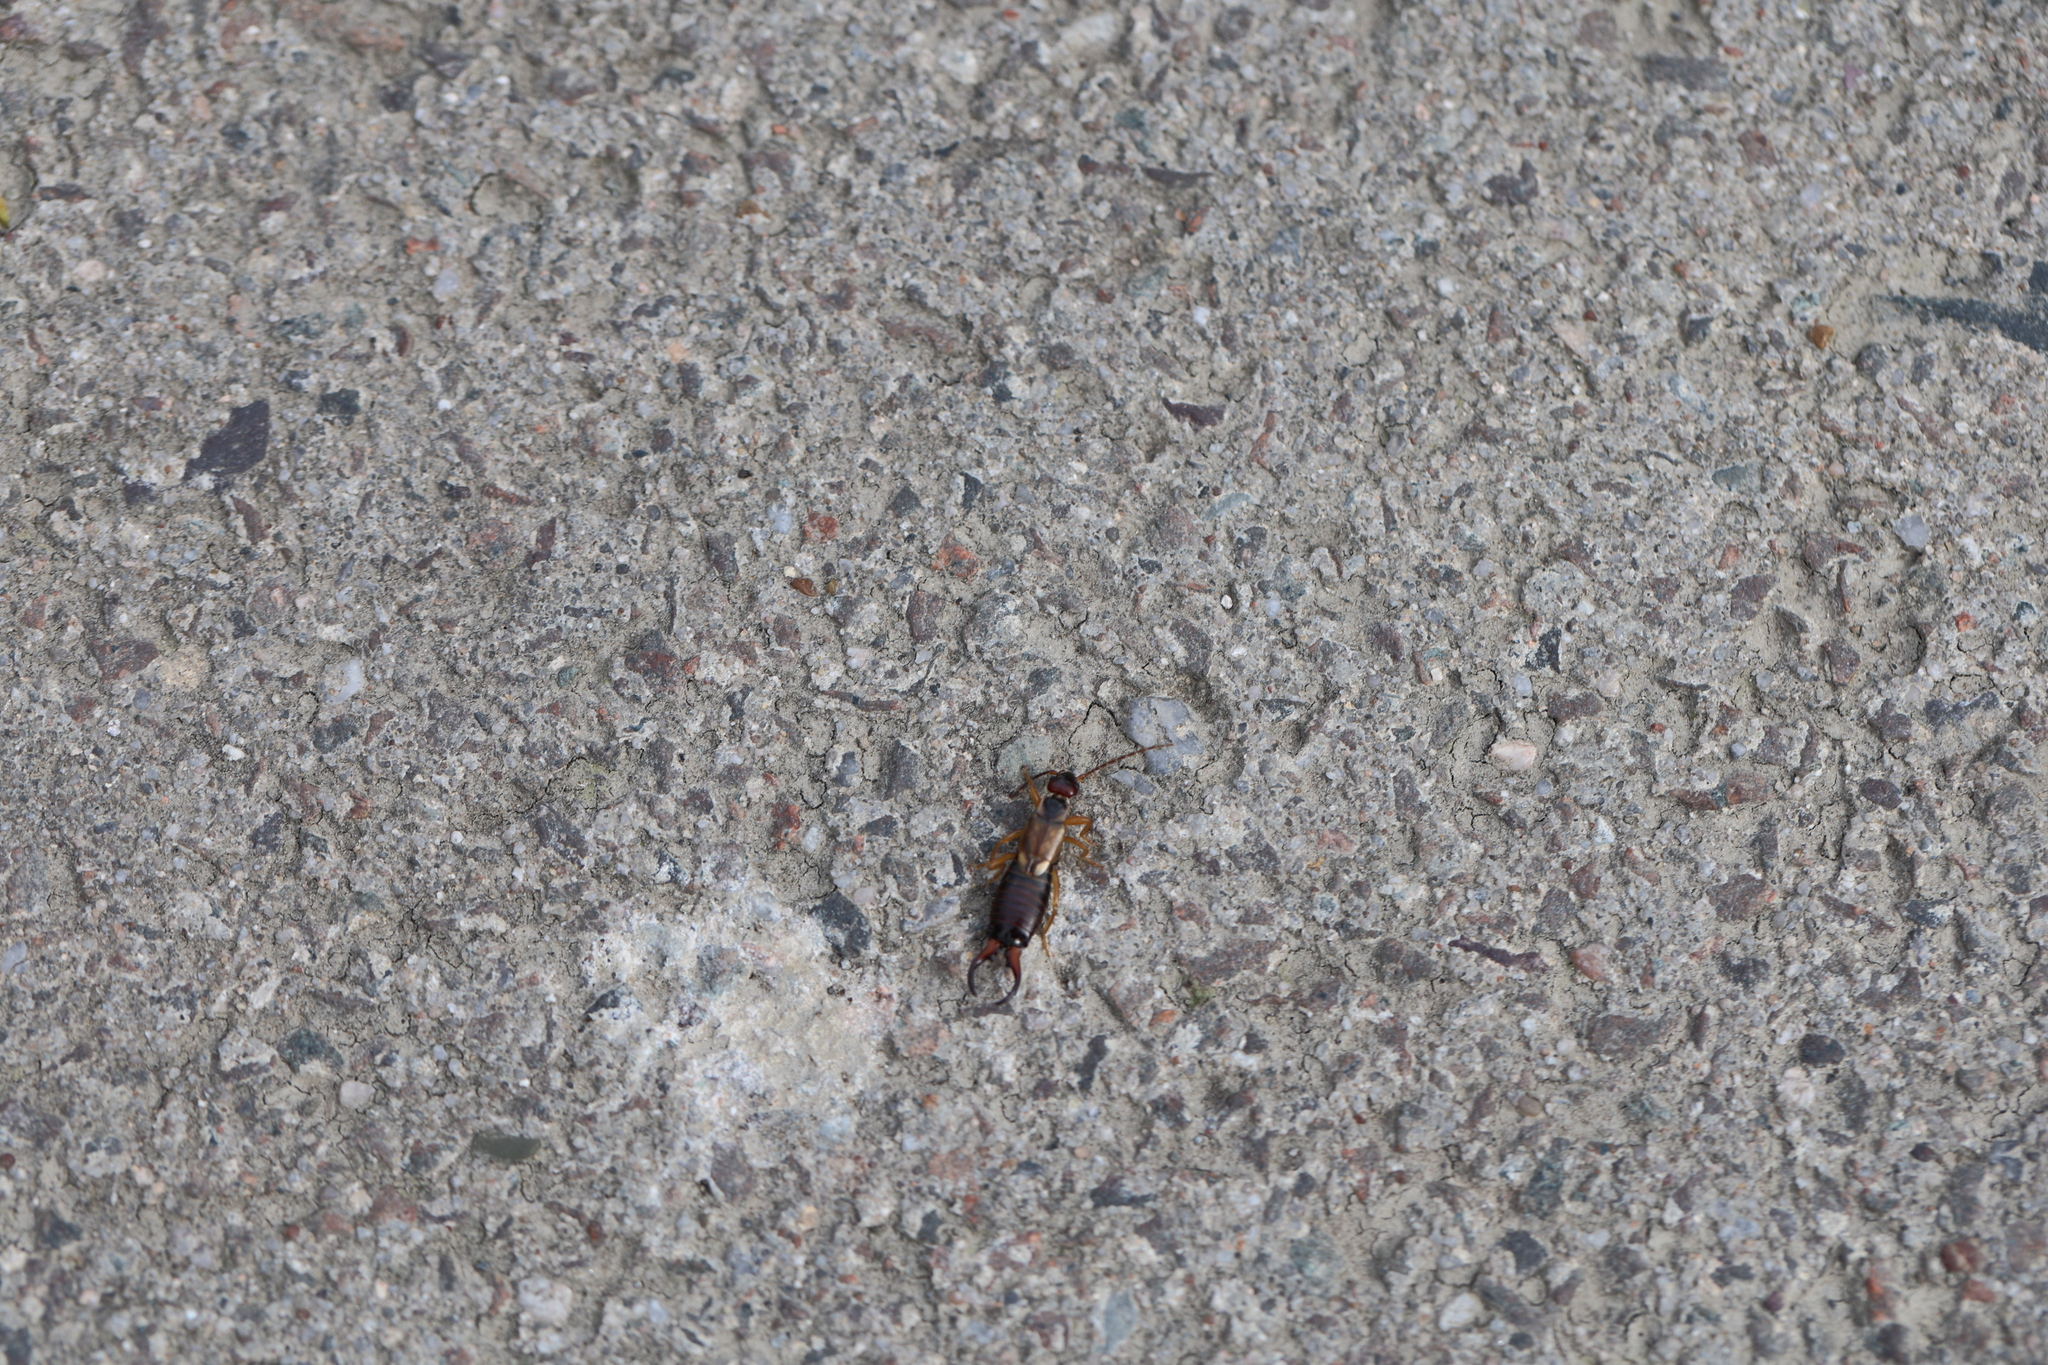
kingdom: Animalia
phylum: Arthropoda
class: Insecta
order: Dermaptera
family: Forficulidae
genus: Forficula
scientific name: Forficula
